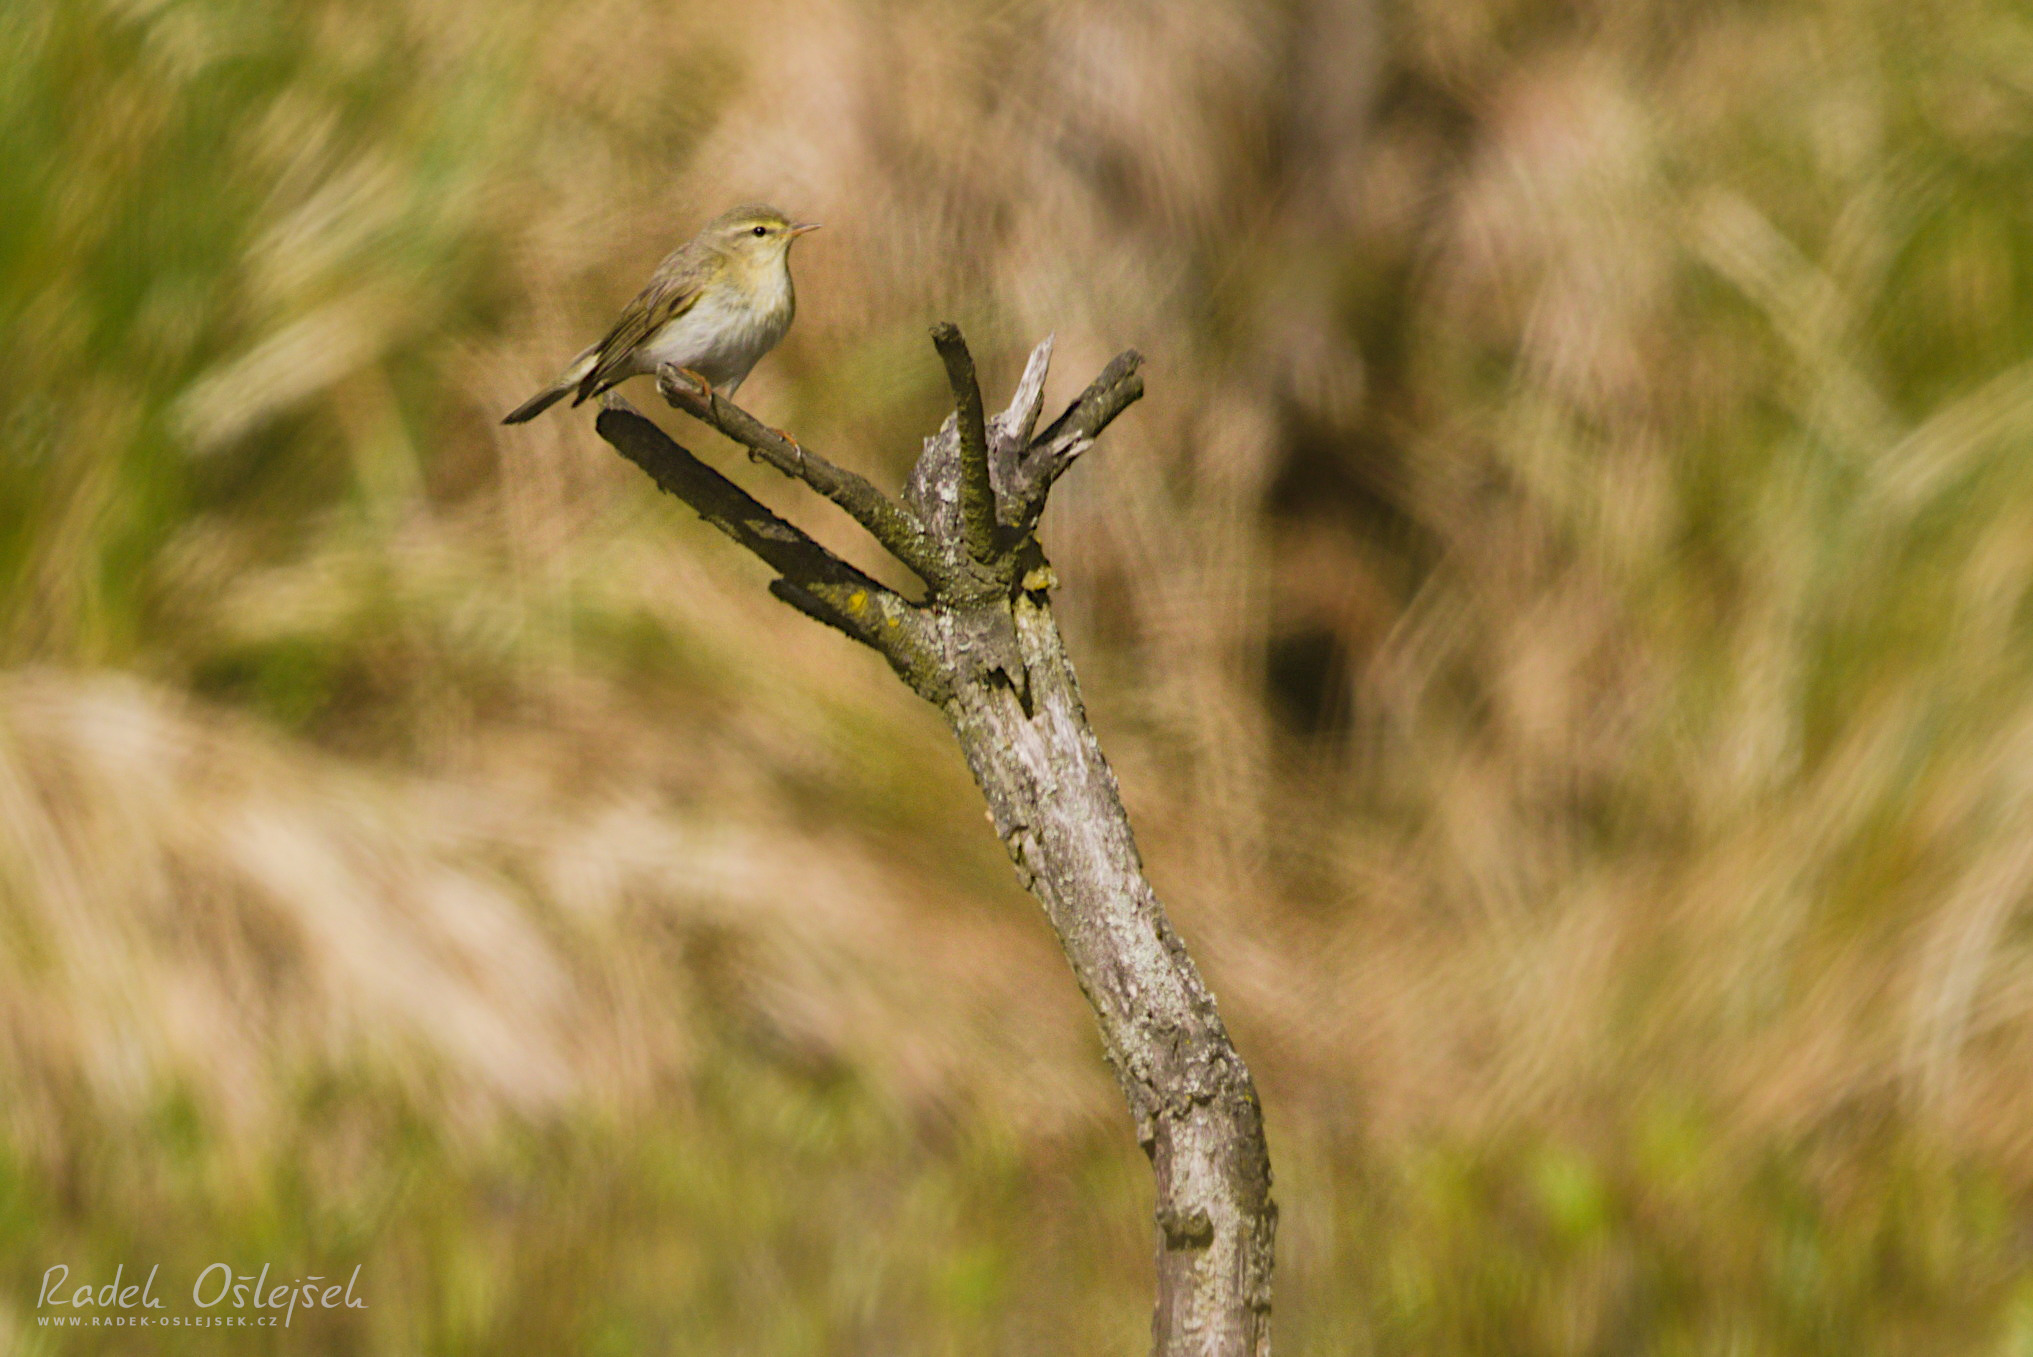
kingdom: Animalia
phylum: Chordata
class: Aves
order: Passeriformes
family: Phylloscopidae
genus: Phylloscopus
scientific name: Phylloscopus trochilus
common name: Willow warbler
